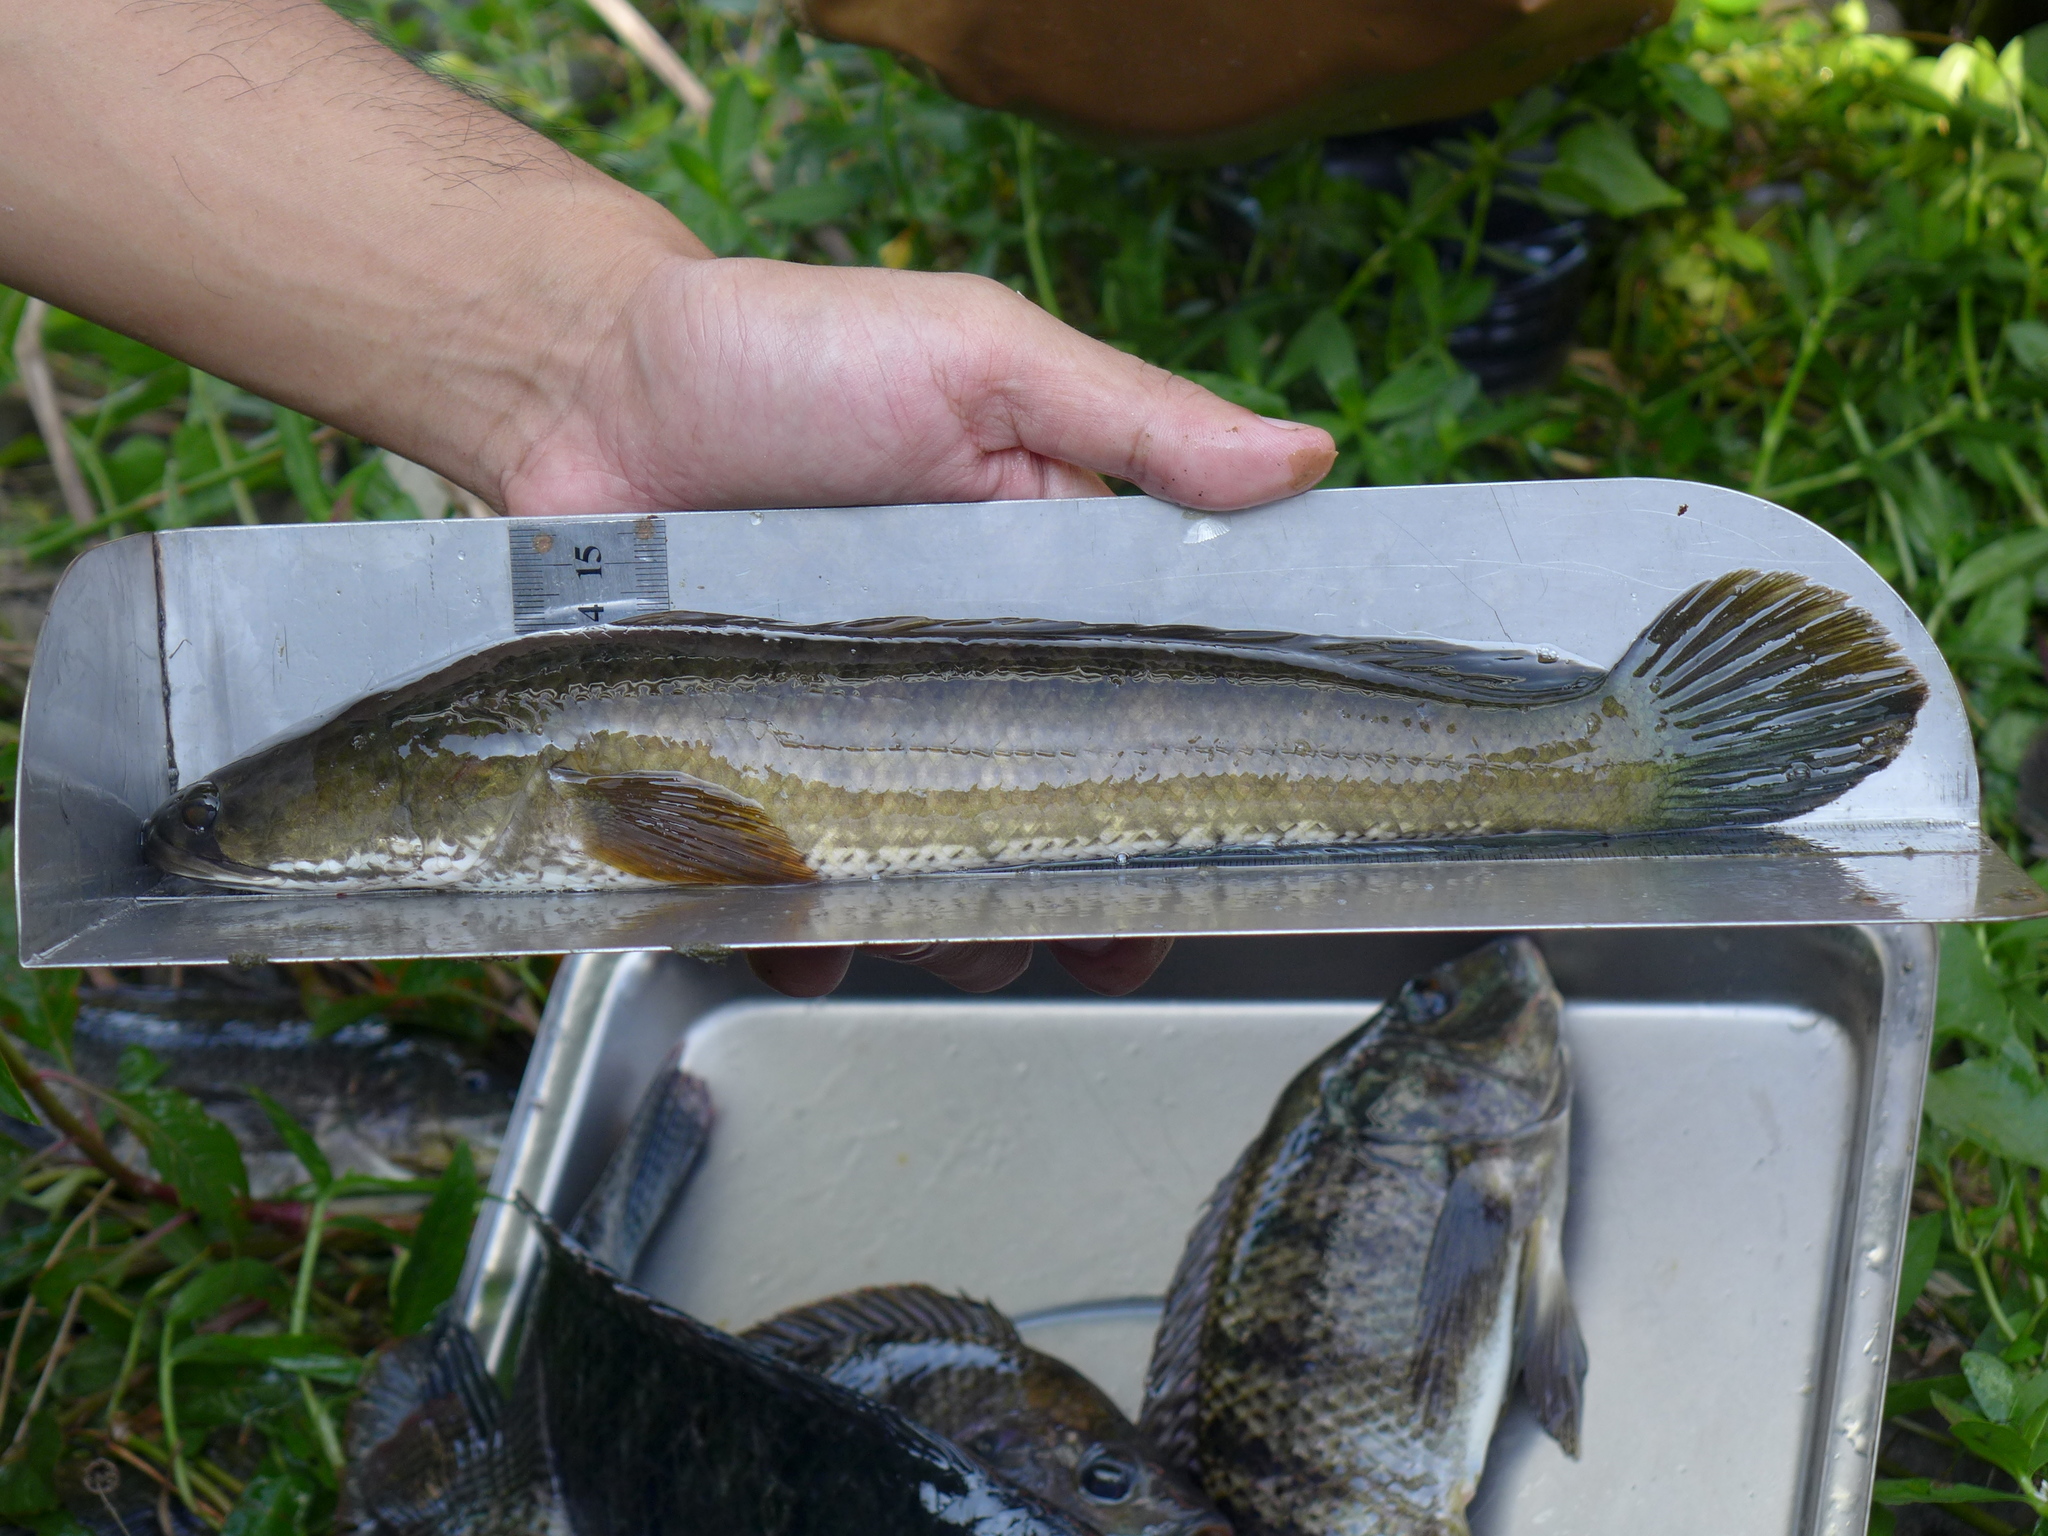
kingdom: Animalia
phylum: Chordata
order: Perciformes
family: Channidae
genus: Channa
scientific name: Channa striata
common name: Striped snakehead
